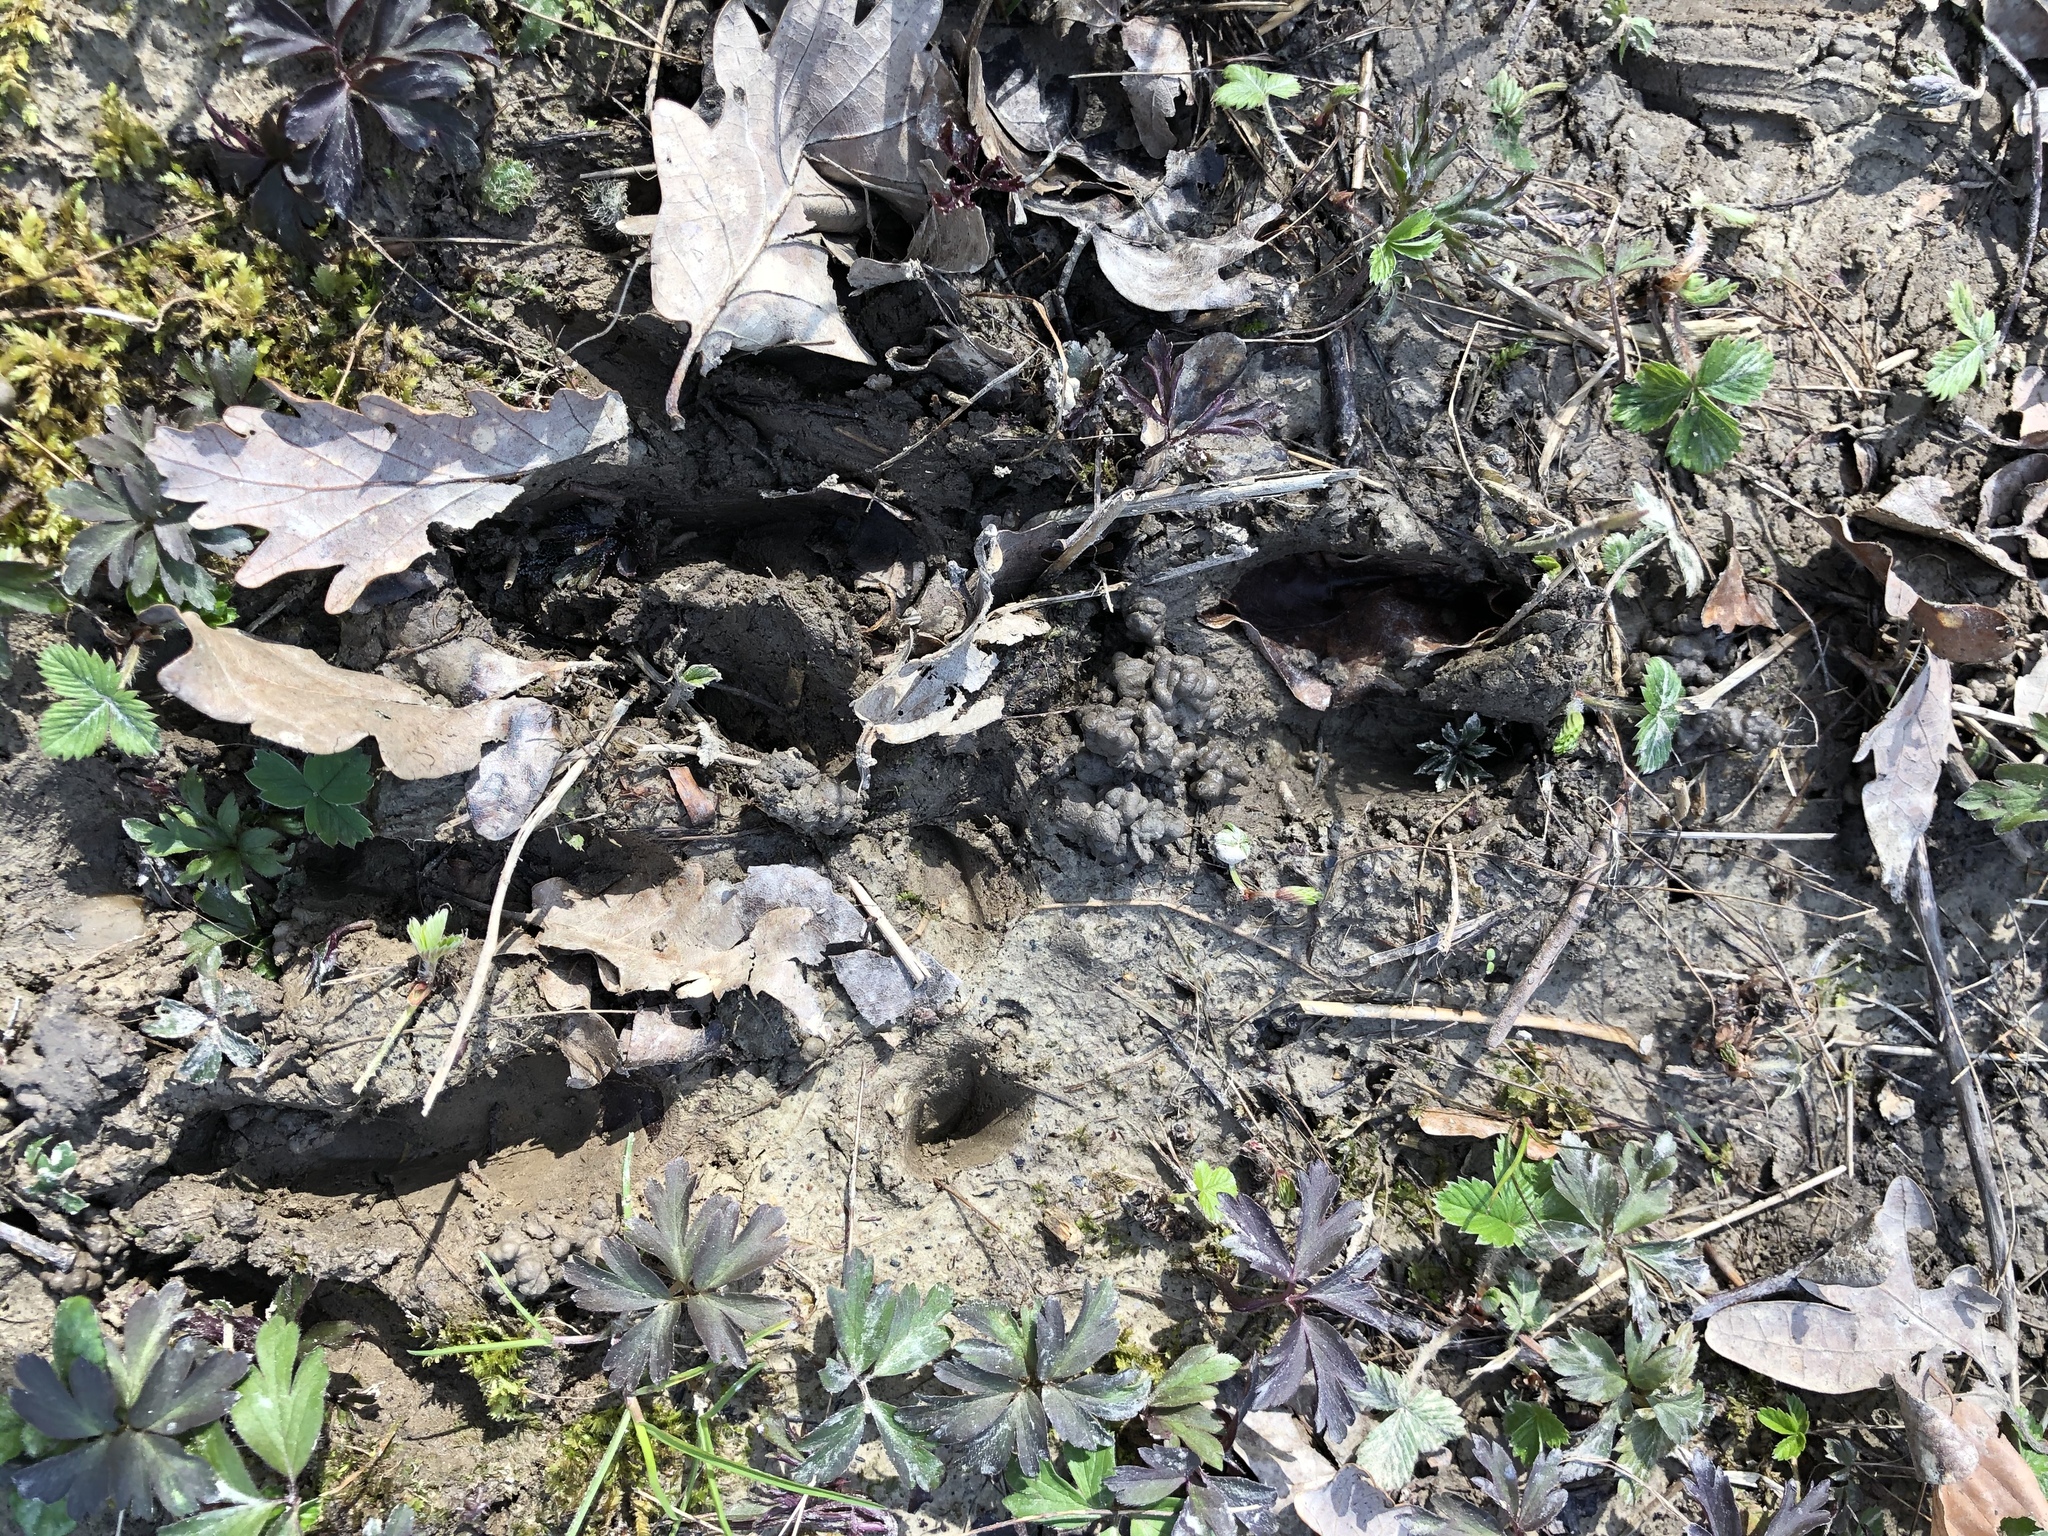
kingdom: Animalia
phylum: Chordata
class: Mammalia
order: Artiodactyla
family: Cervidae
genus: Capreolus
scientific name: Capreolus capreolus
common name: Western roe deer
